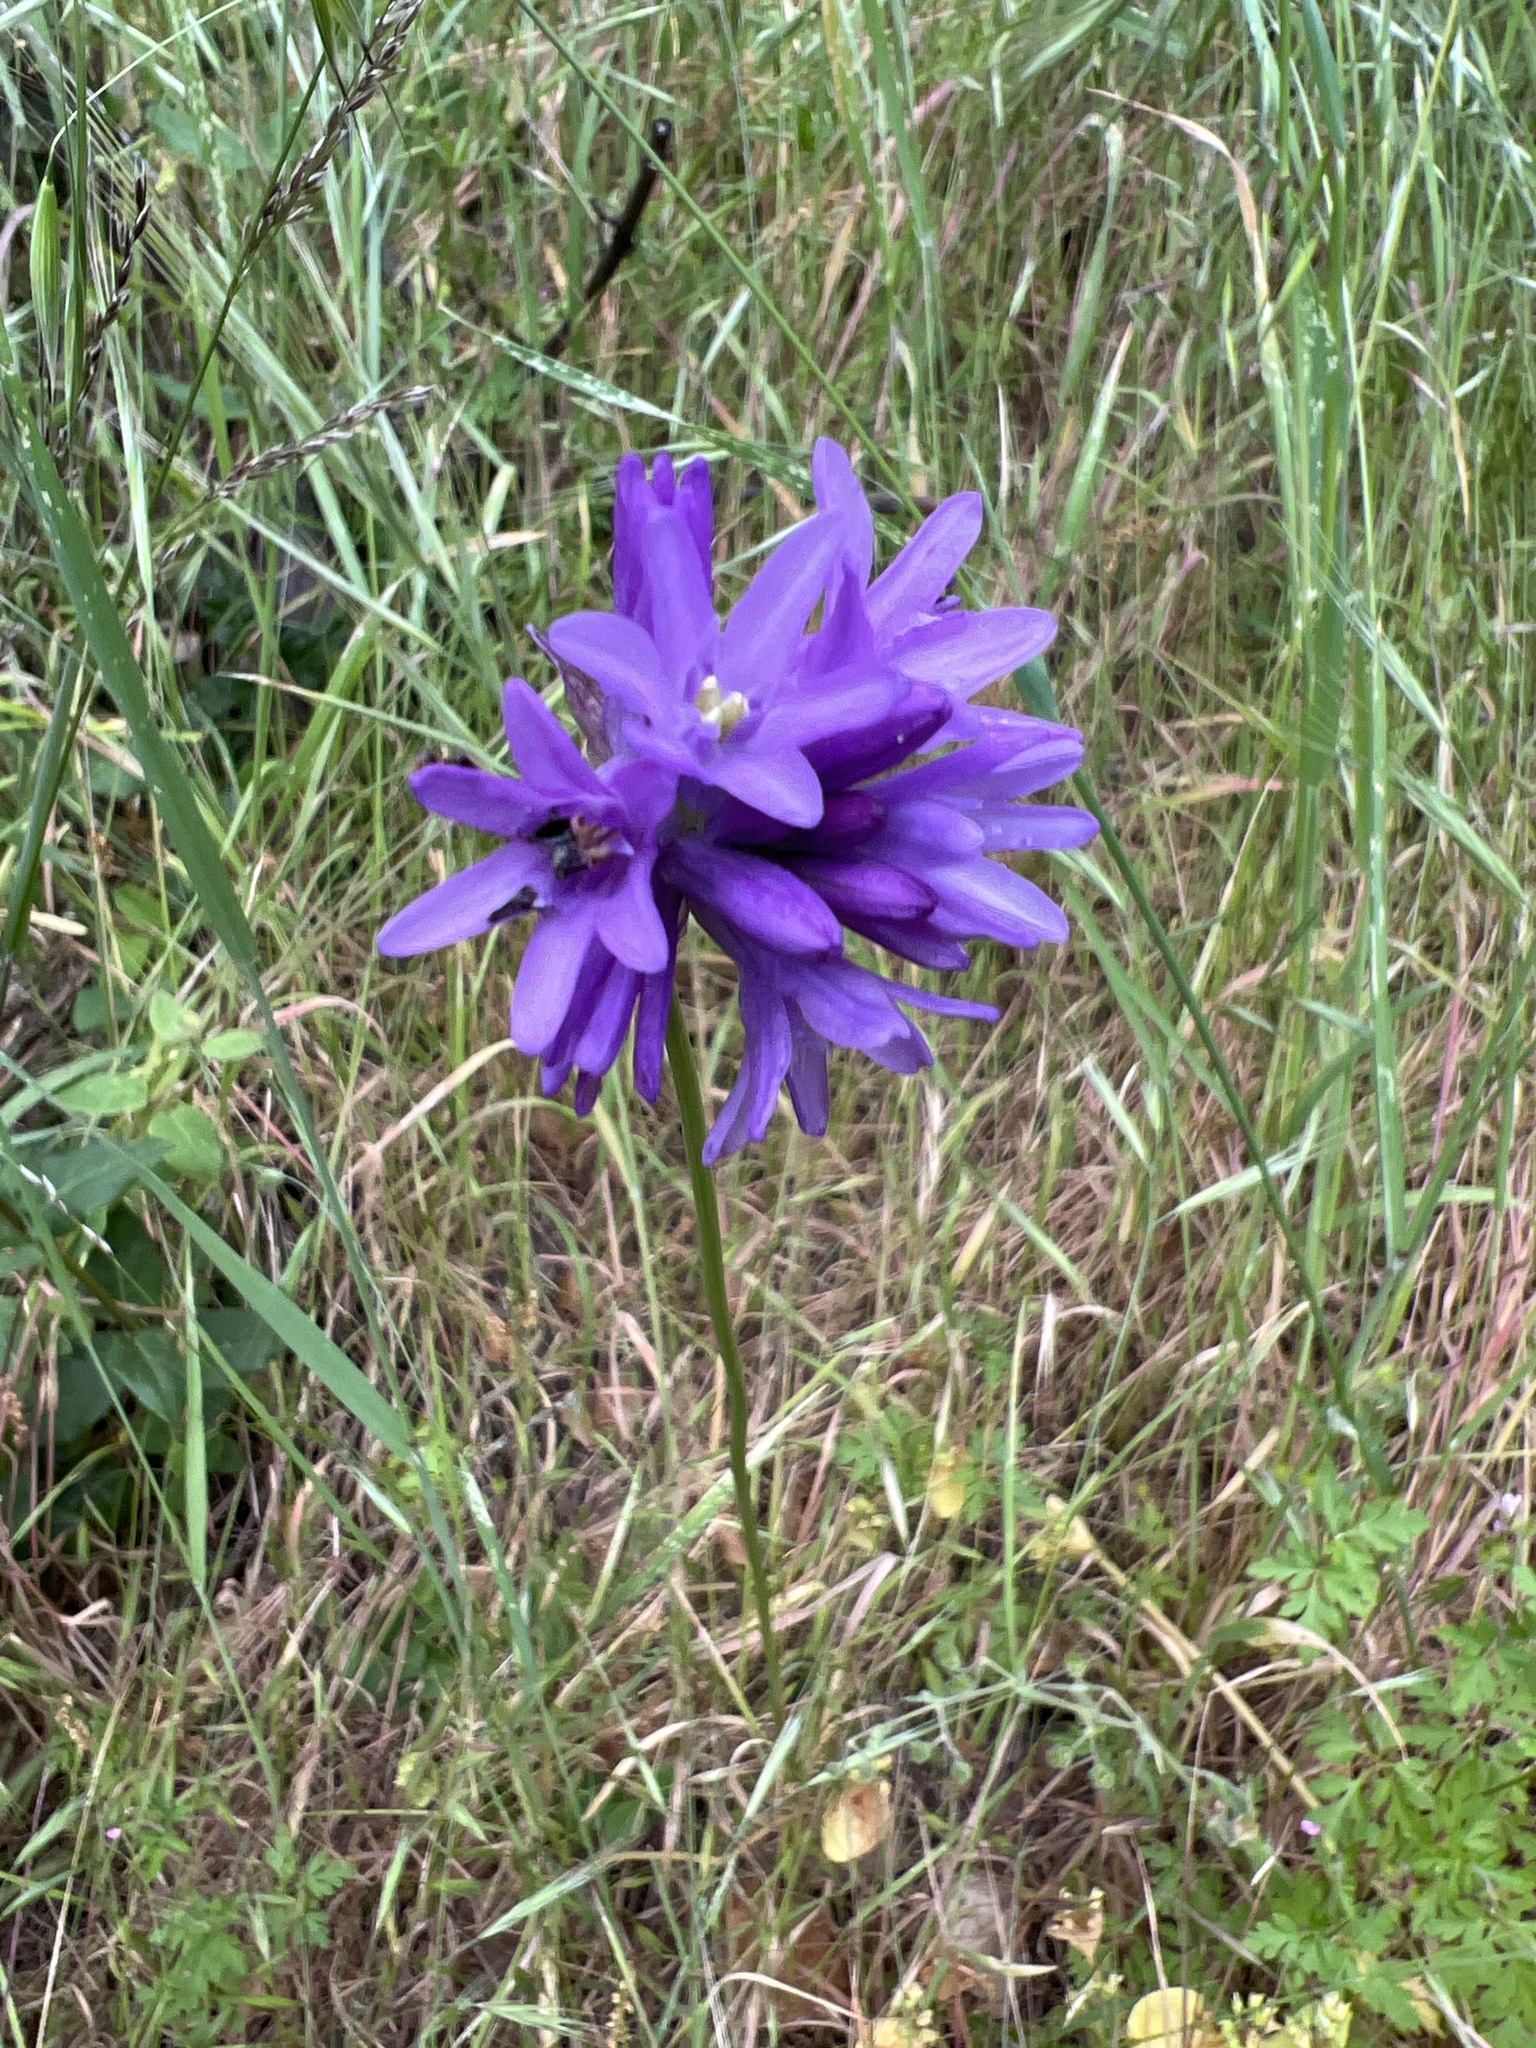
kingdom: Plantae
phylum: Tracheophyta
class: Liliopsida
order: Asparagales
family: Asparagaceae
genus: Dichelostemma
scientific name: Dichelostemma congestum
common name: Fork-tooth ookow
